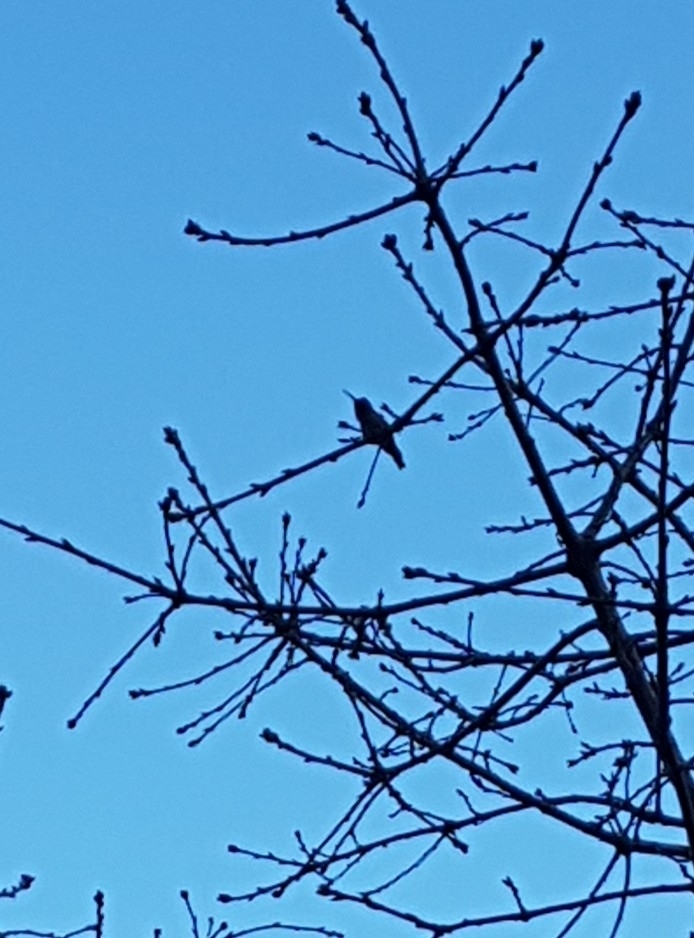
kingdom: Animalia
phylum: Chordata
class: Aves
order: Apodiformes
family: Trochilidae
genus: Calypte
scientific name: Calypte anna
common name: Anna's hummingbird
